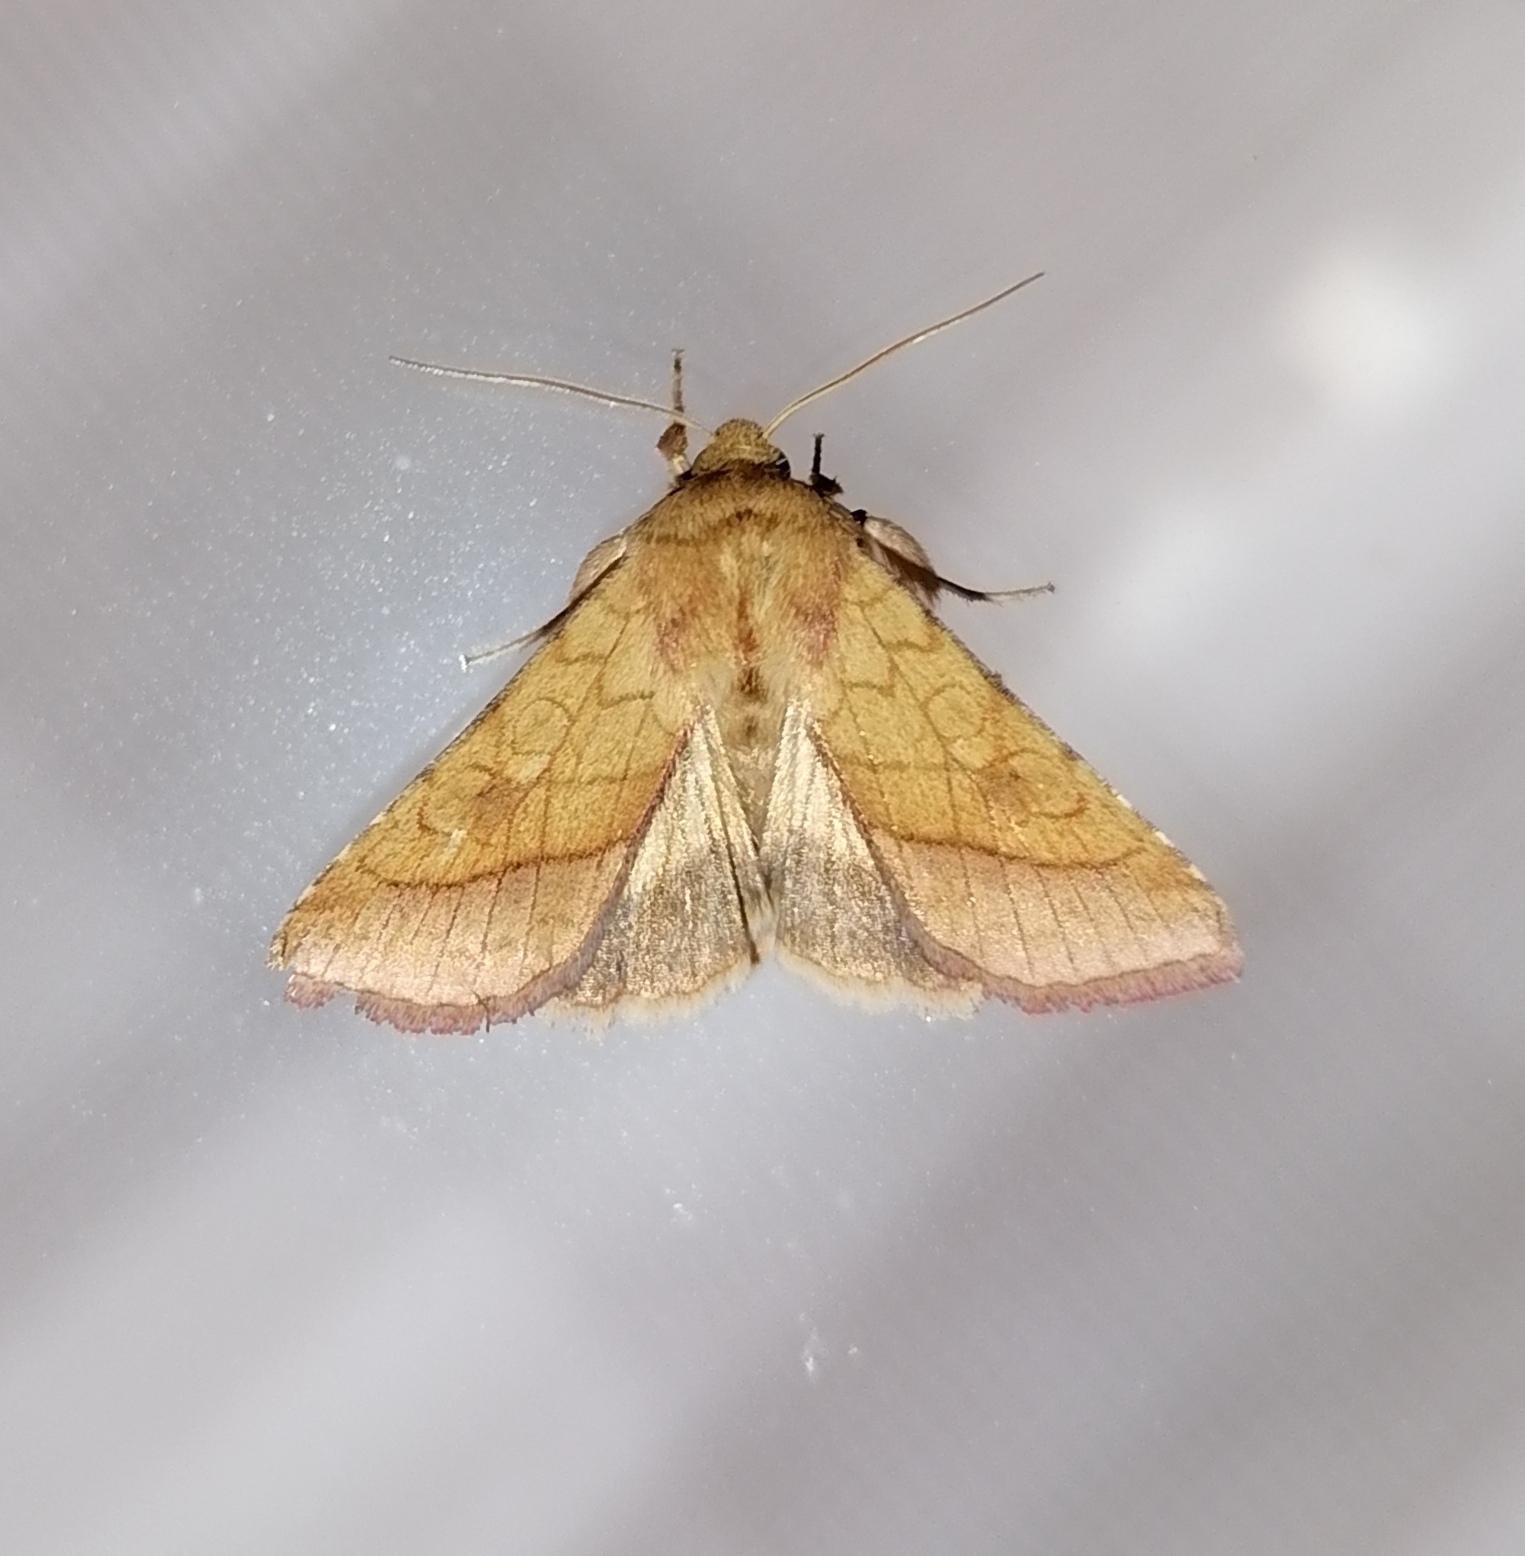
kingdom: Animalia
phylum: Arthropoda
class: Insecta
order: Lepidoptera
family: Noctuidae
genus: Pyrrhia
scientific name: Pyrrhia umbra
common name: Bordered sallow
